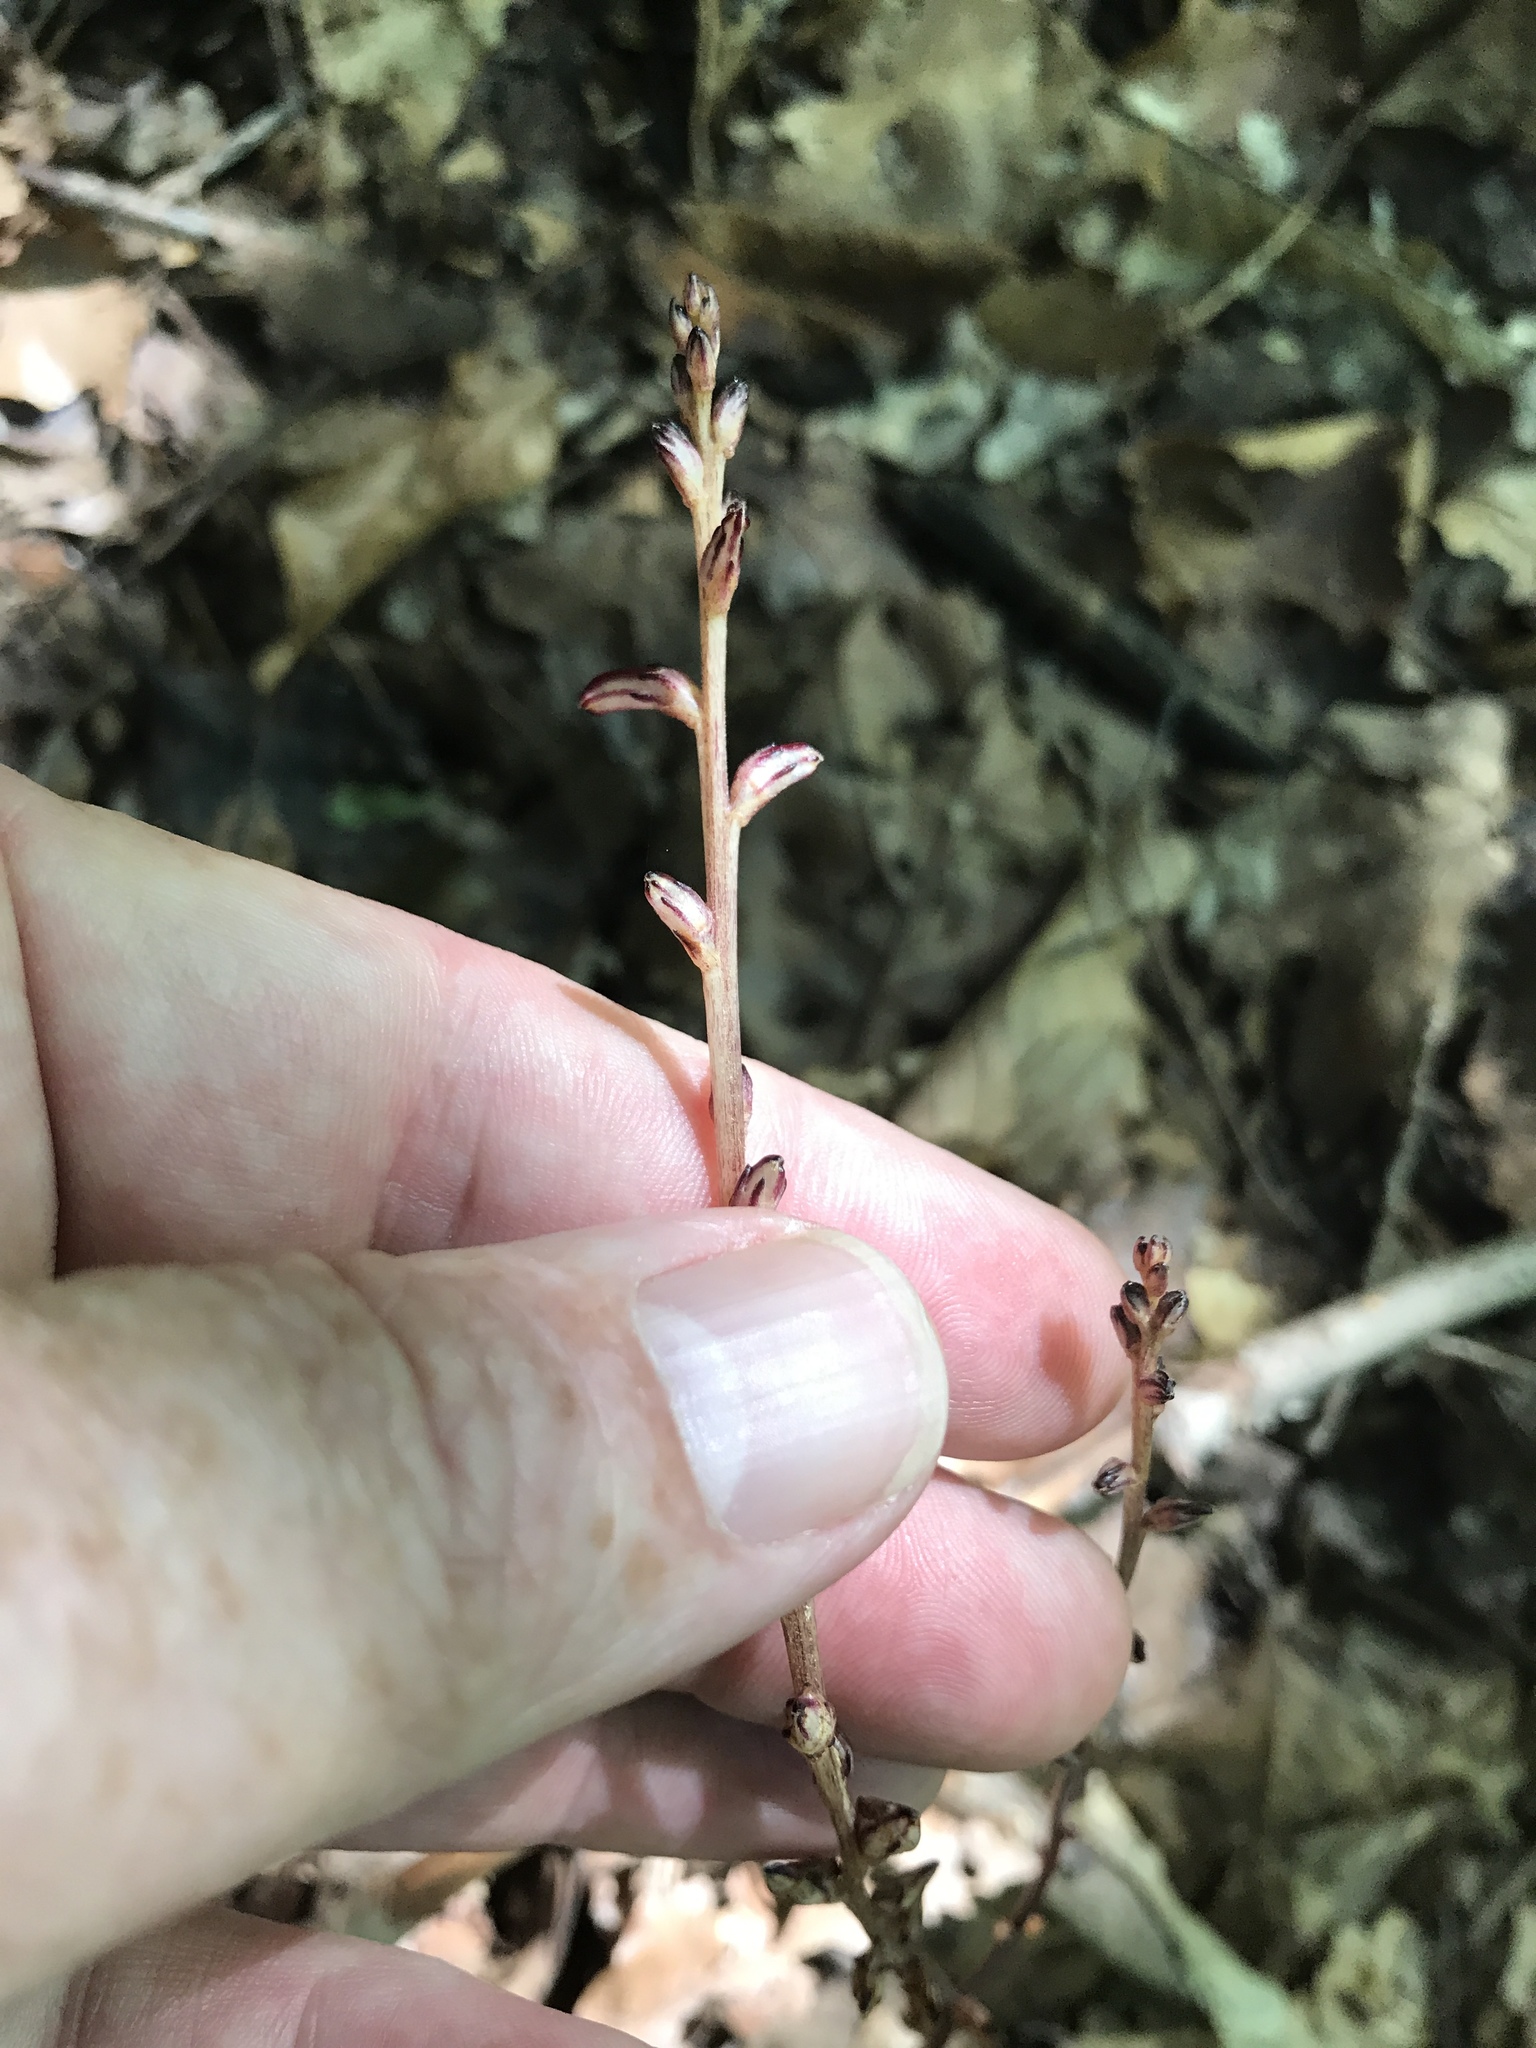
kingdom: Plantae
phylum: Tracheophyta
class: Magnoliopsida
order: Lamiales
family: Orobanchaceae
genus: Epifagus
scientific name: Epifagus virginiana
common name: Beechdrops
